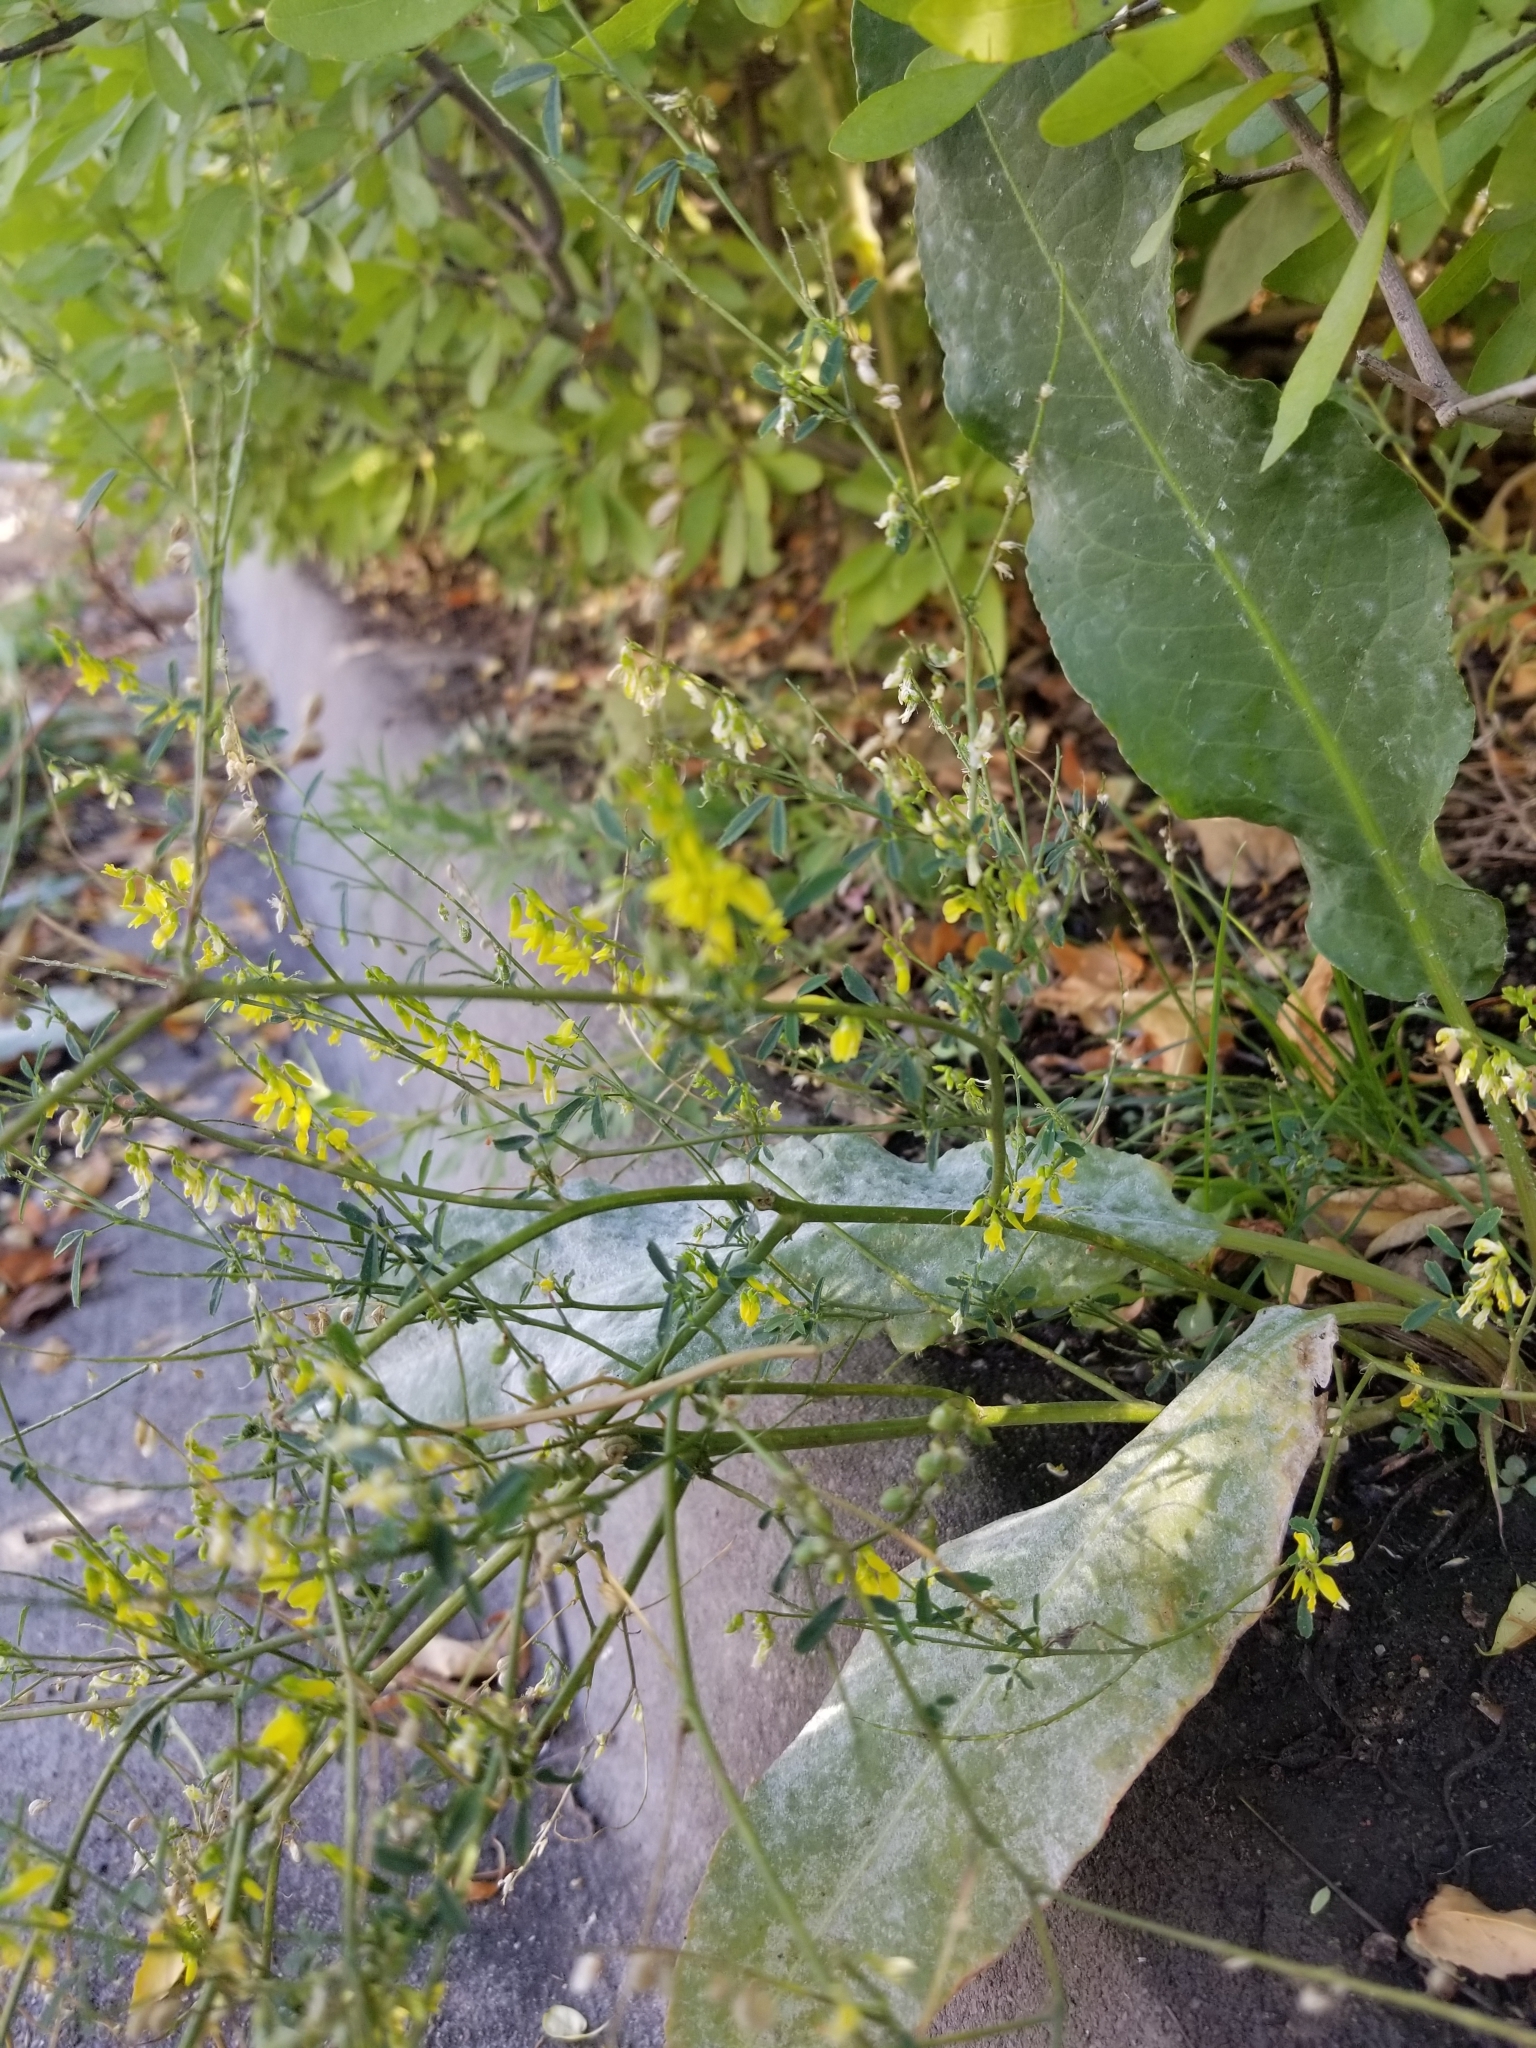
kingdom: Plantae
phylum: Tracheophyta
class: Magnoliopsida
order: Fabales
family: Fabaceae
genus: Melilotus
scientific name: Melilotus officinalis
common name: Sweetclover
